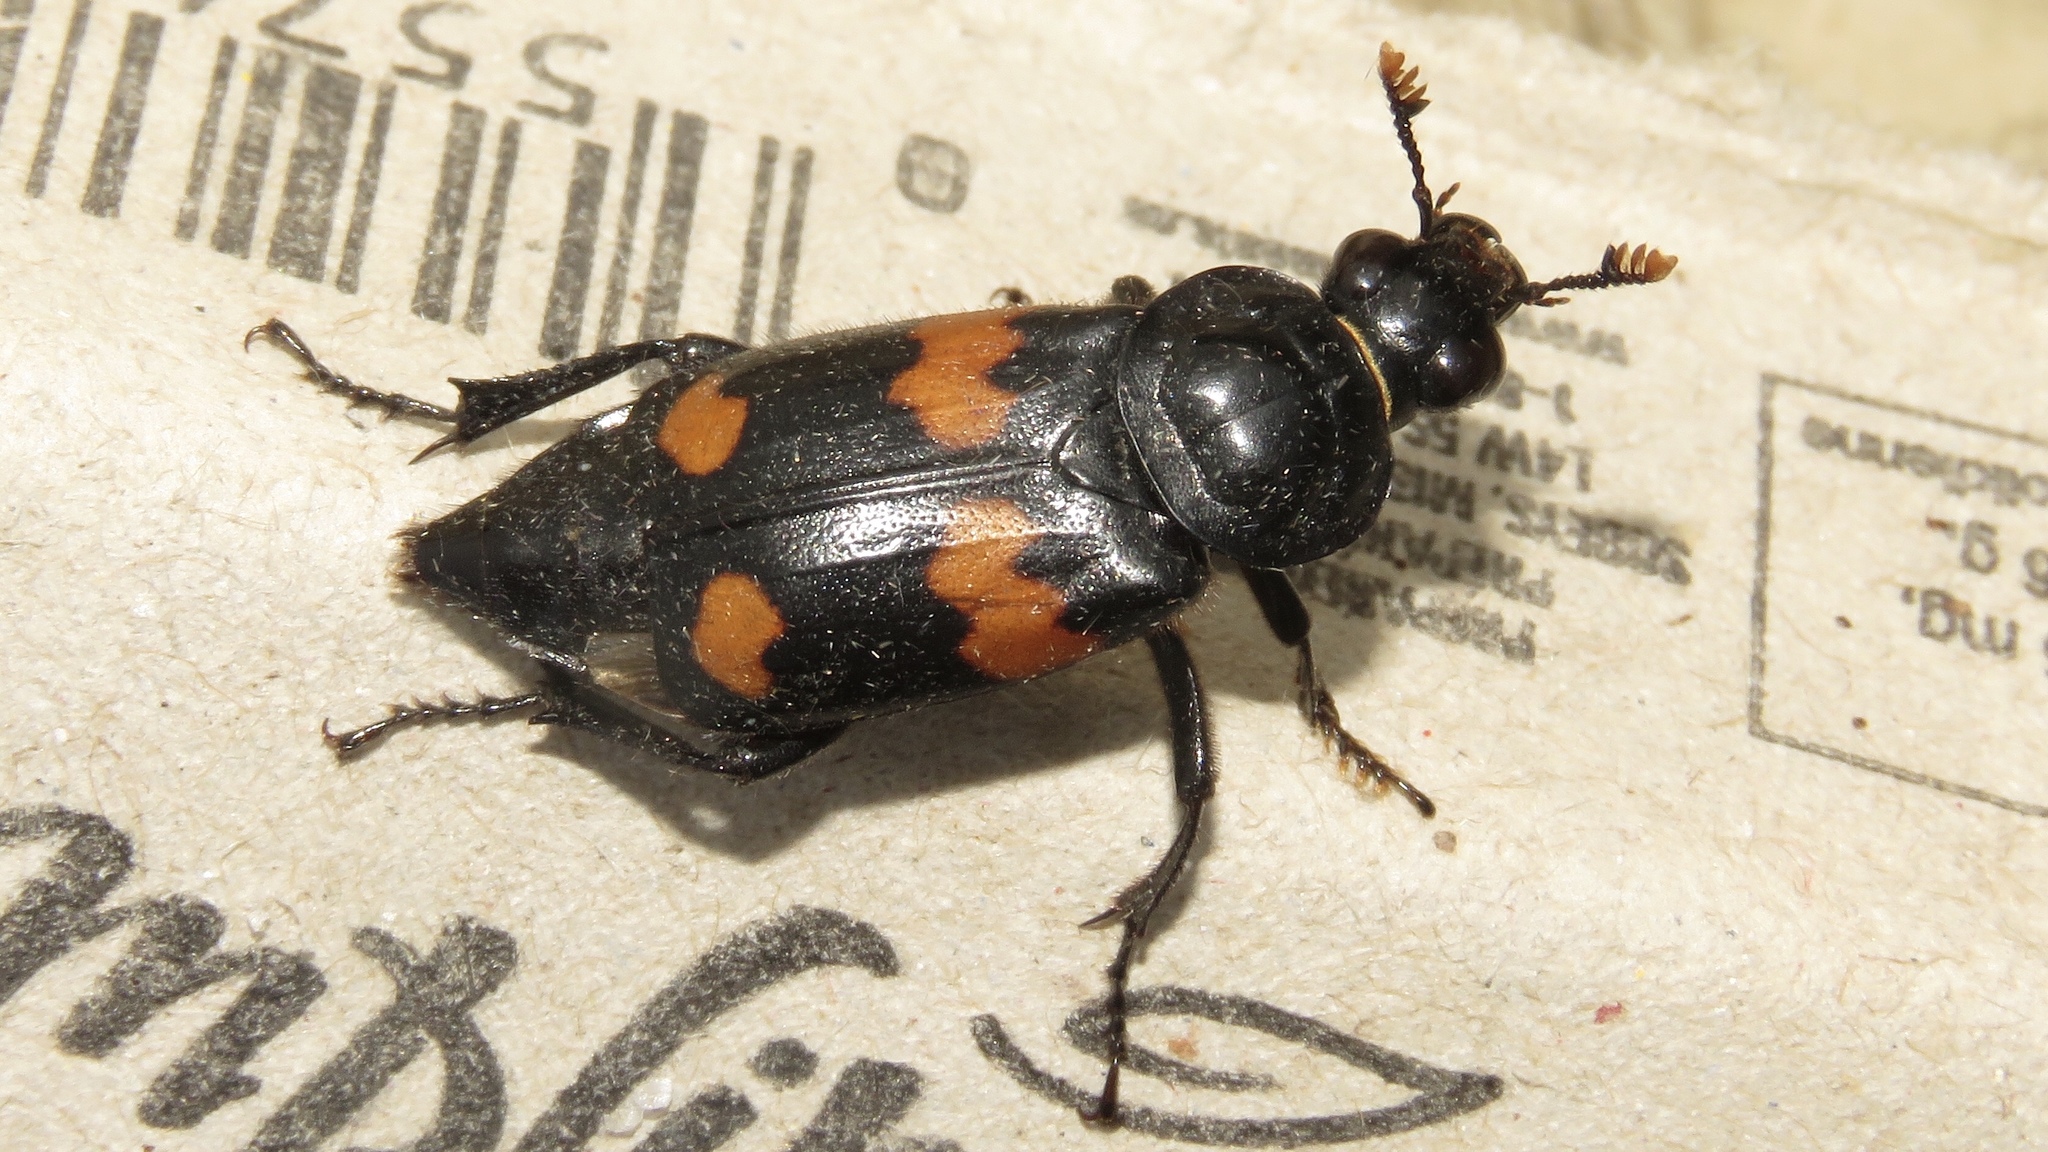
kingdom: Animalia
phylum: Arthropoda
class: Insecta
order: Coleoptera
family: Staphylinidae
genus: Nicrophorus
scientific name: Nicrophorus orbicollis
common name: Roundneck sexton beetle
